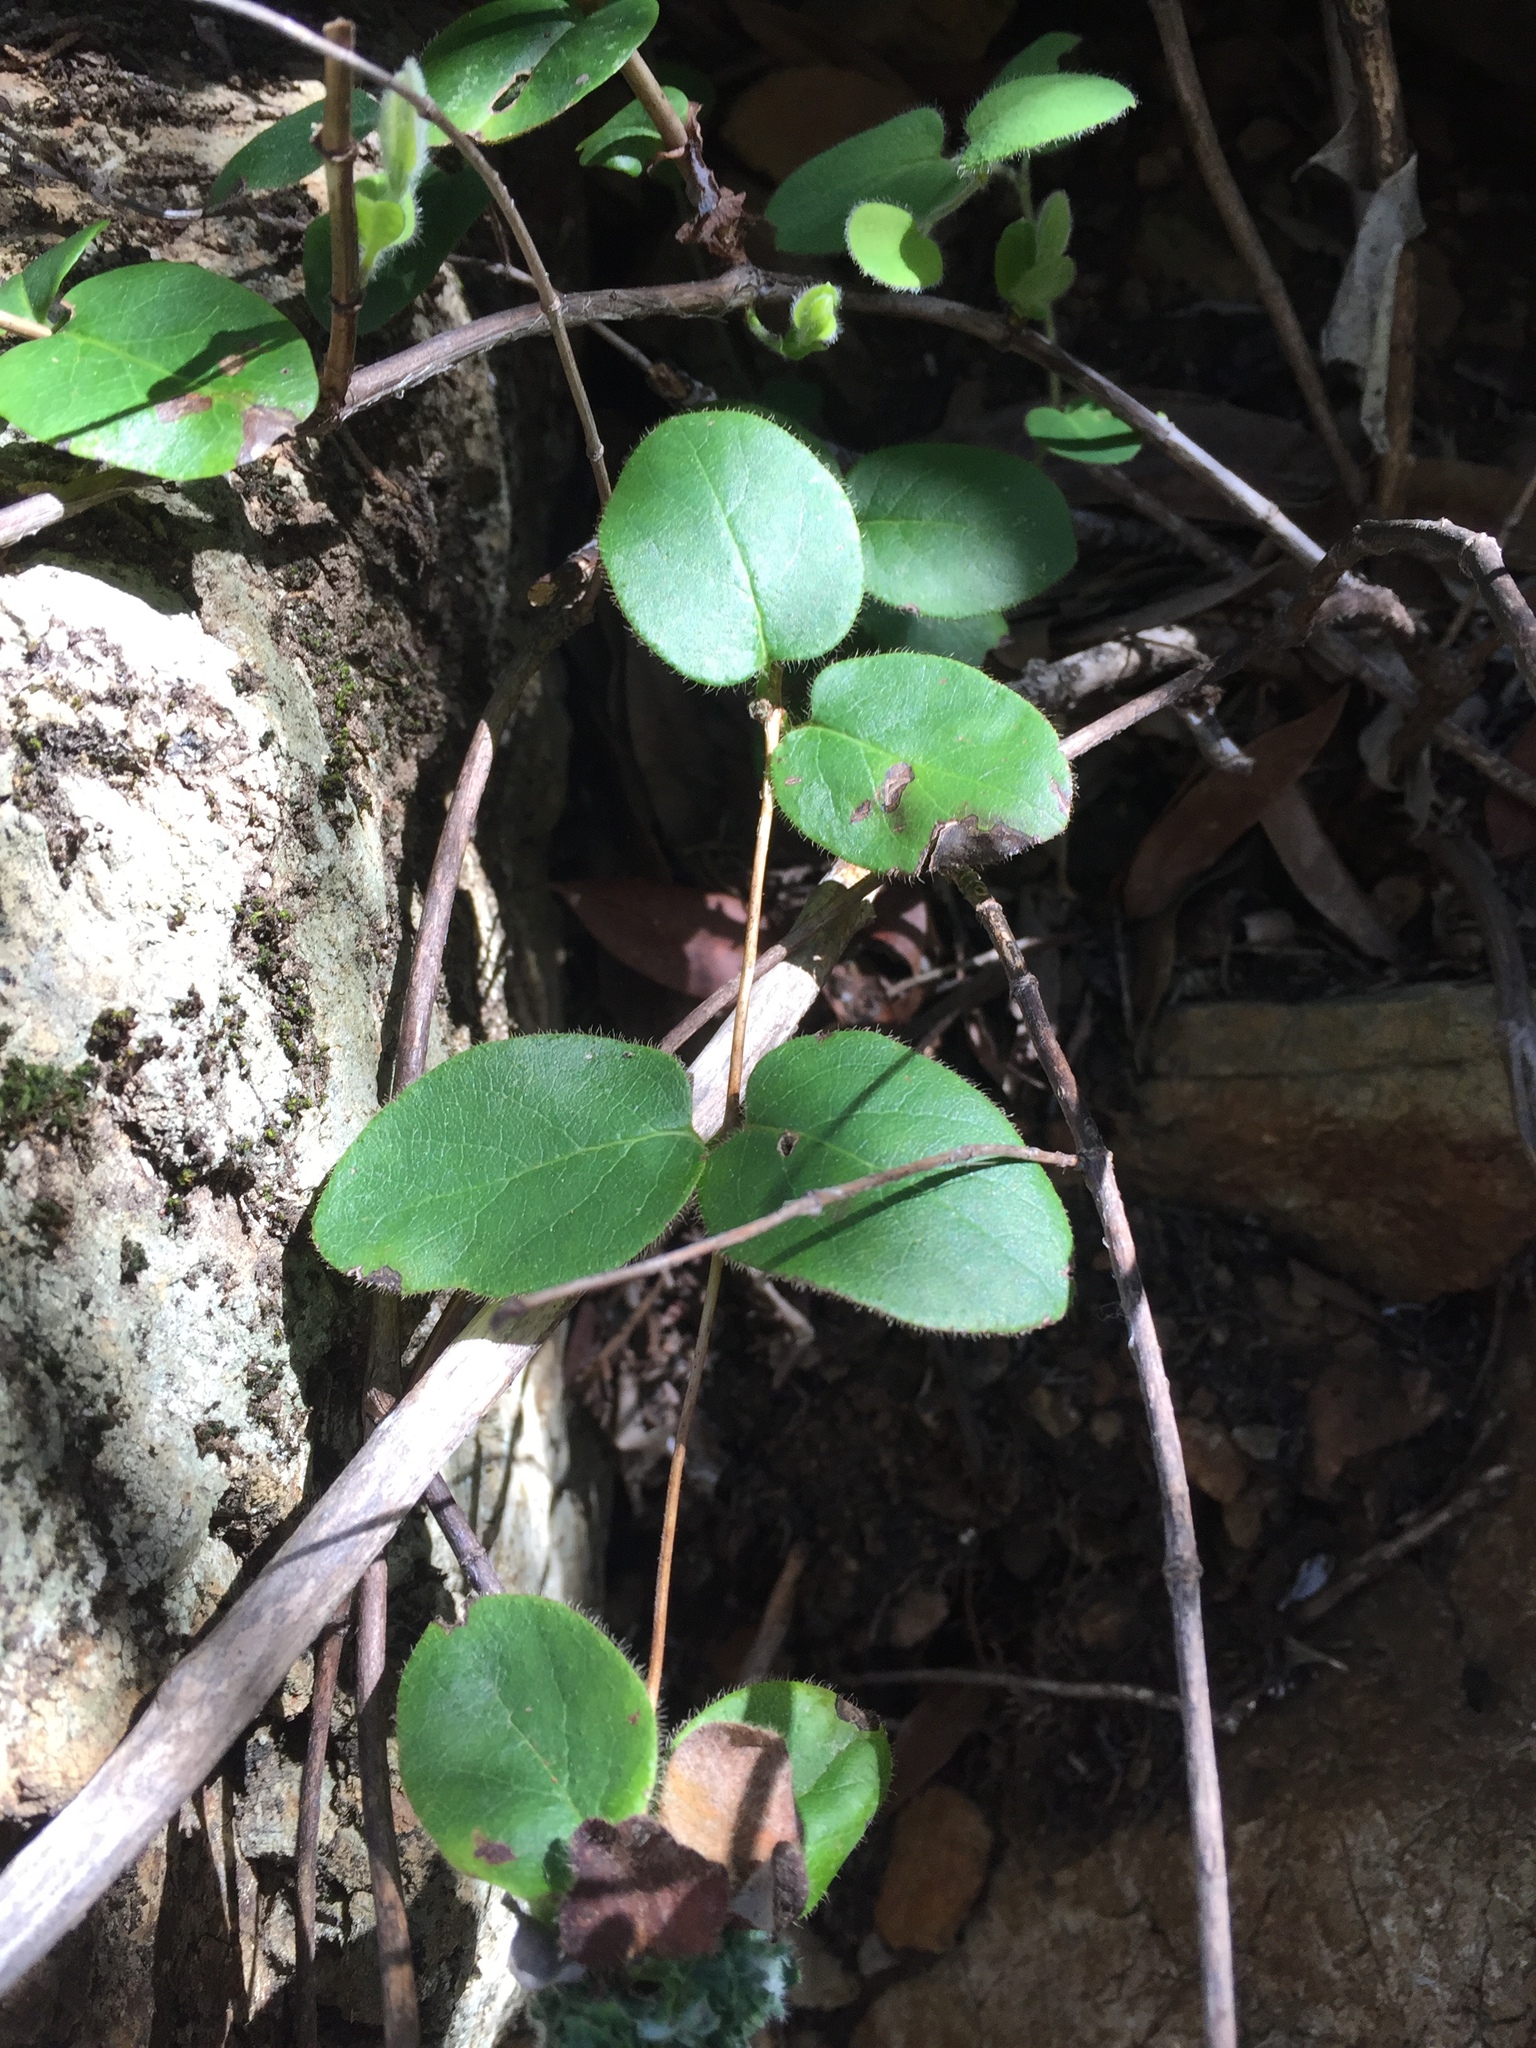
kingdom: Plantae
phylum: Tracheophyta
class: Magnoliopsida
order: Dipsacales
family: Caprifoliaceae
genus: Lonicera
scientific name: Lonicera hispidula
